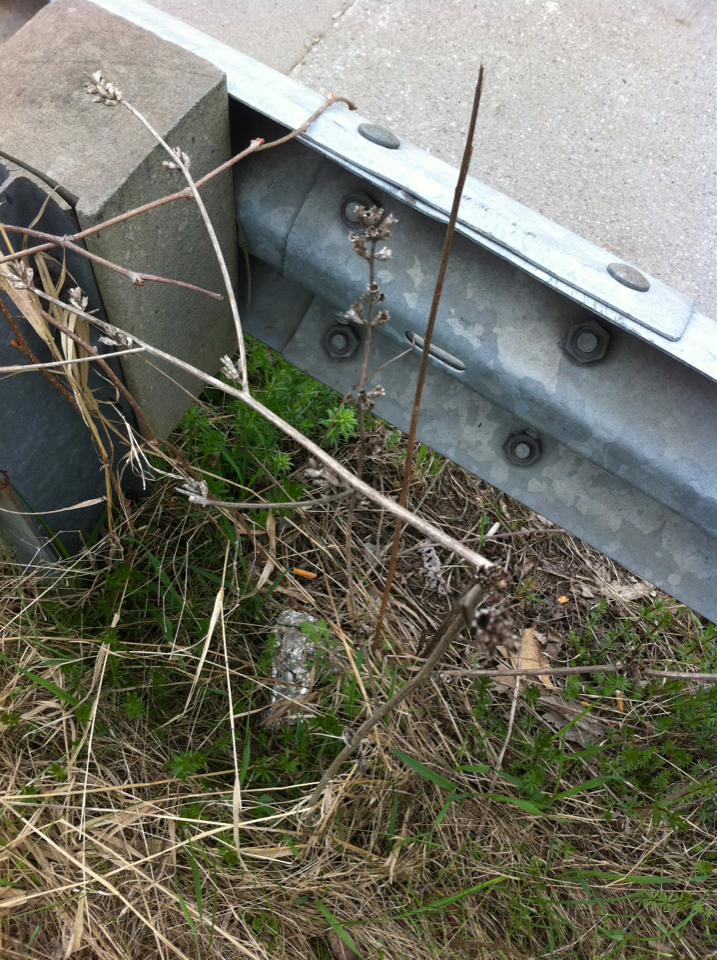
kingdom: Plantae
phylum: Tracheophyta
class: Magnoliopsida
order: Asterales
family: Asteraceae
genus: Cichorium
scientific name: Cichorium intybus
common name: Chicory
